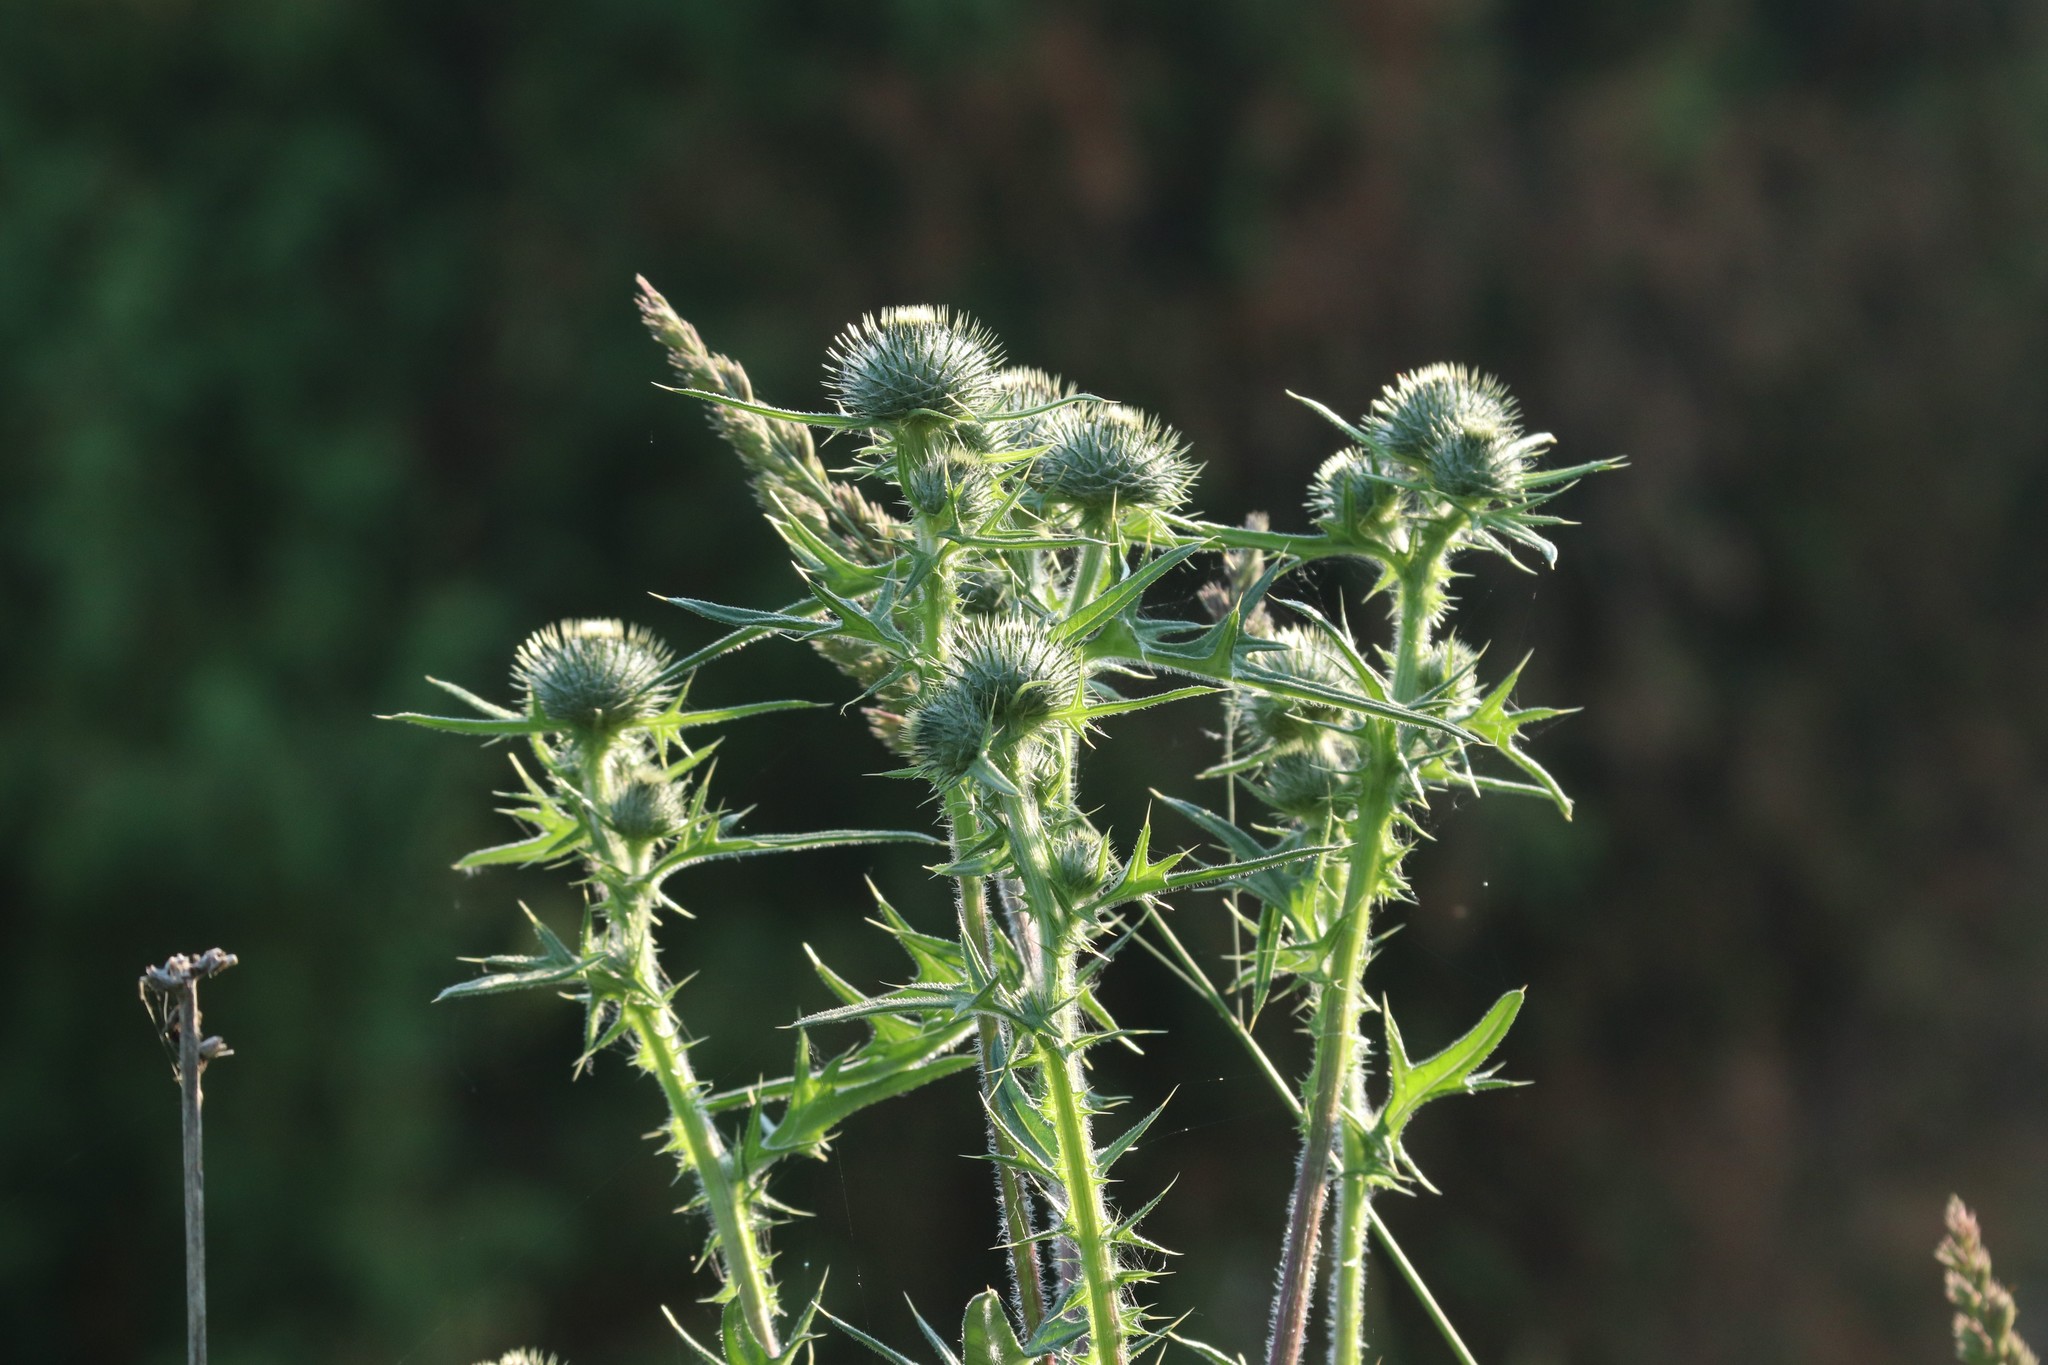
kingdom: Plantae
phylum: Tracheophyta
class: Magnoliopsida
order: Asterales
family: Asteraceae
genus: Cirsium
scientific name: Cirsium vulgare
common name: Bull thistle
